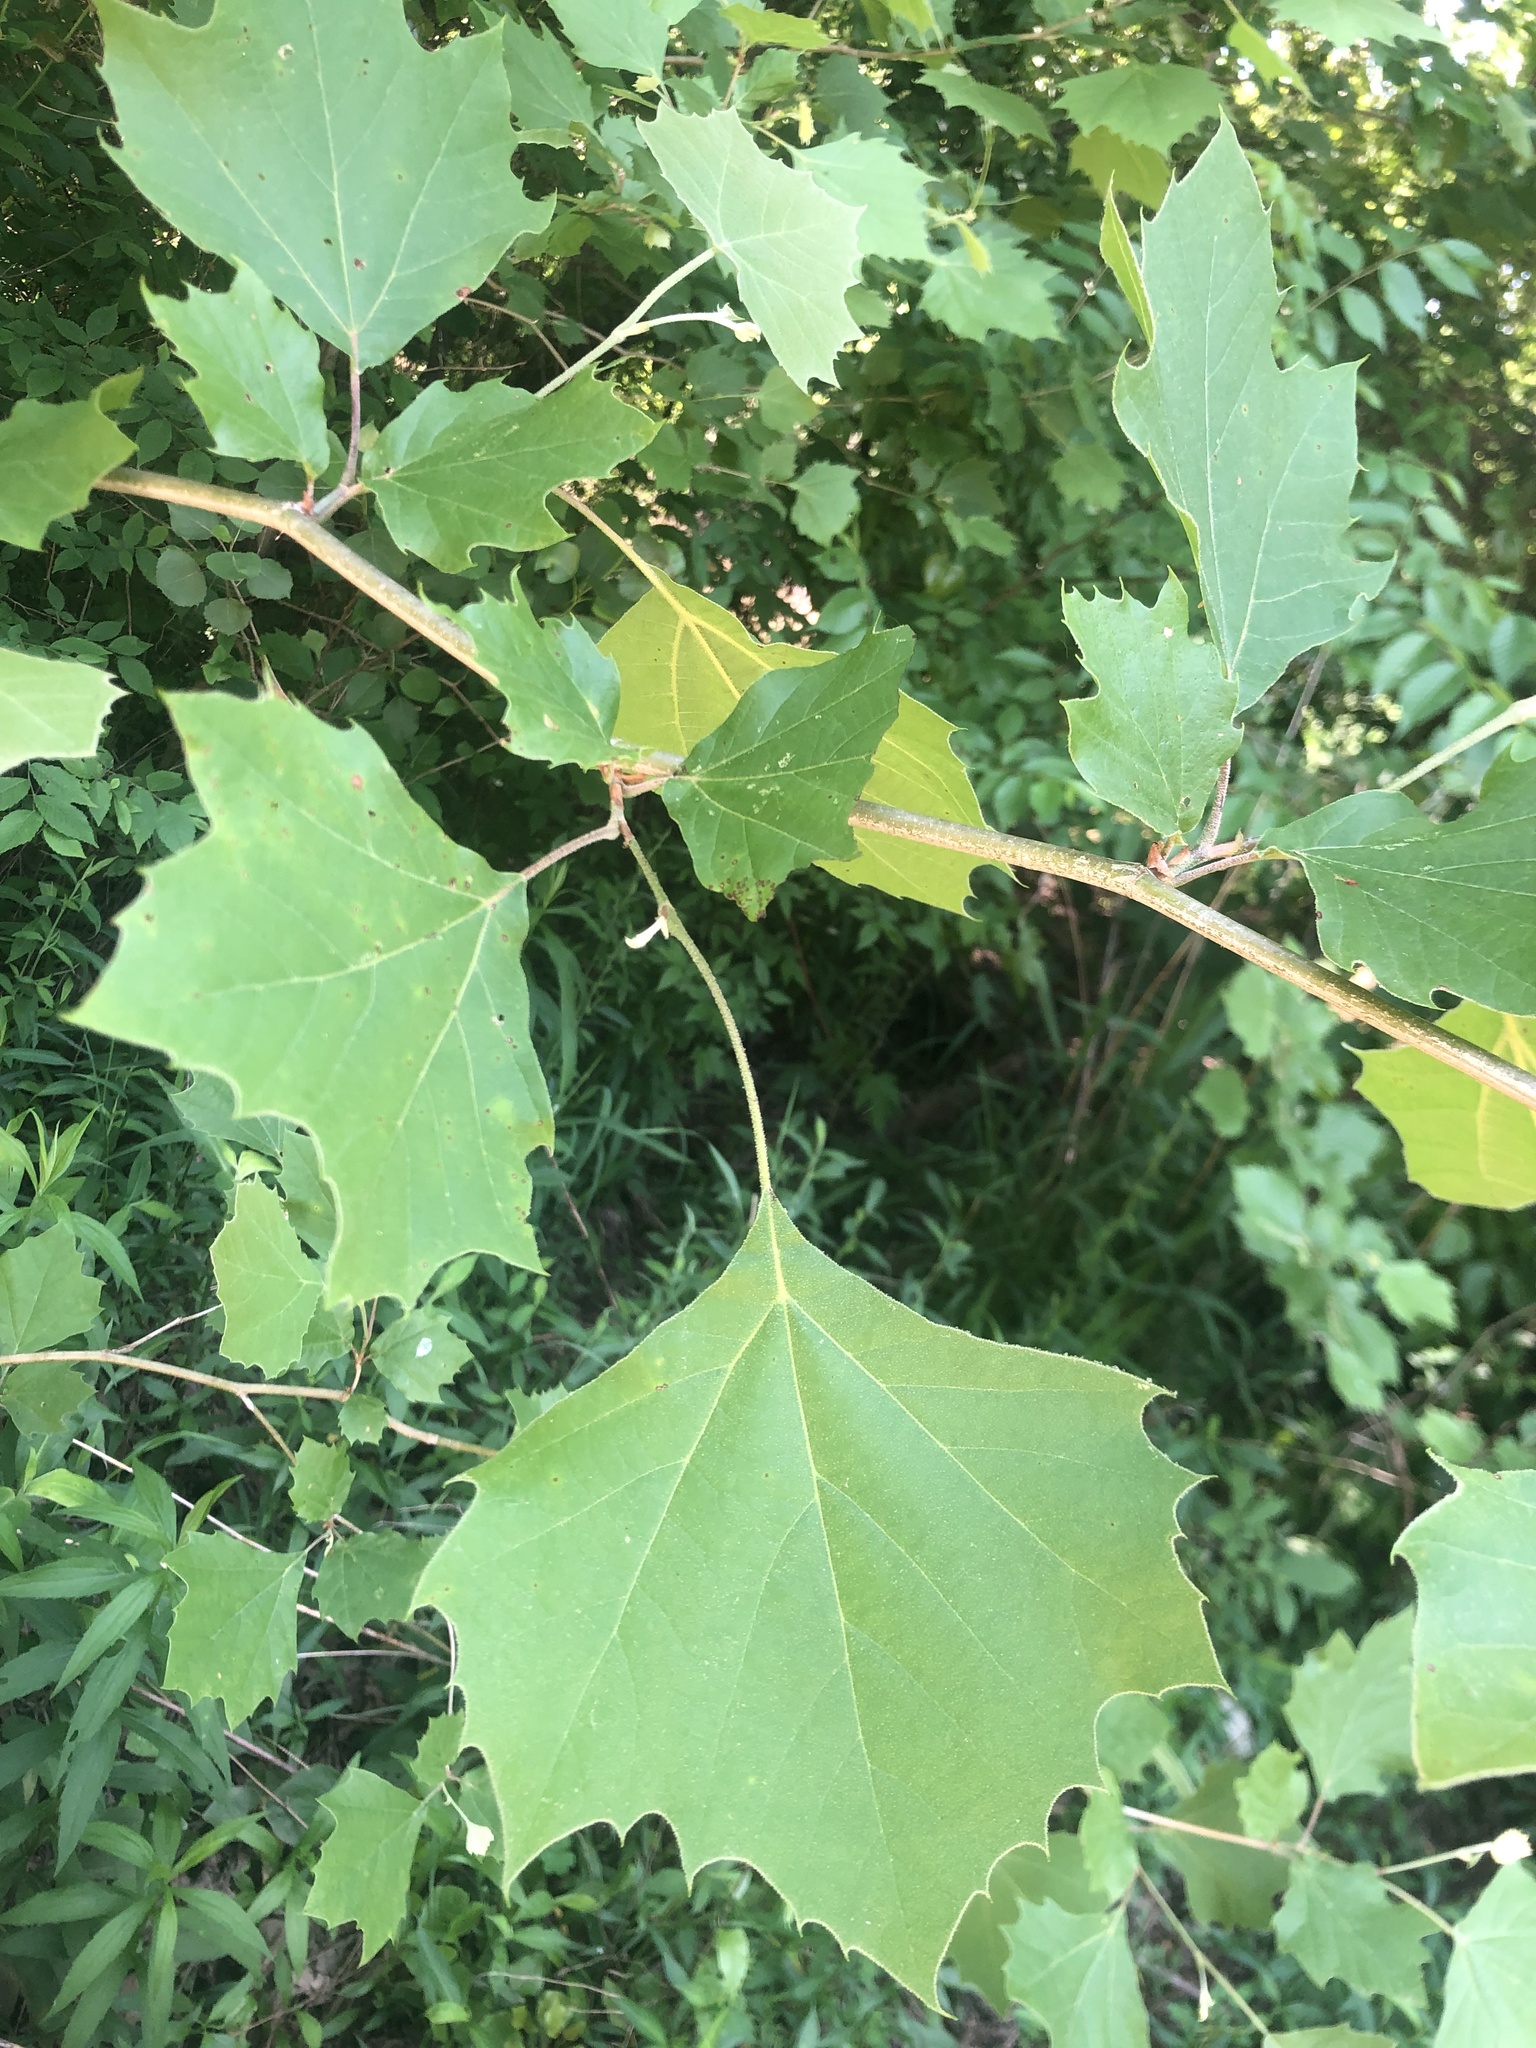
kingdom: Plantae
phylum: Tracheophyta
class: Magnoliopsida
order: Proteales
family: Platanaceae
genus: Platanus
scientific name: Platanus occidentalis
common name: American sycamore
